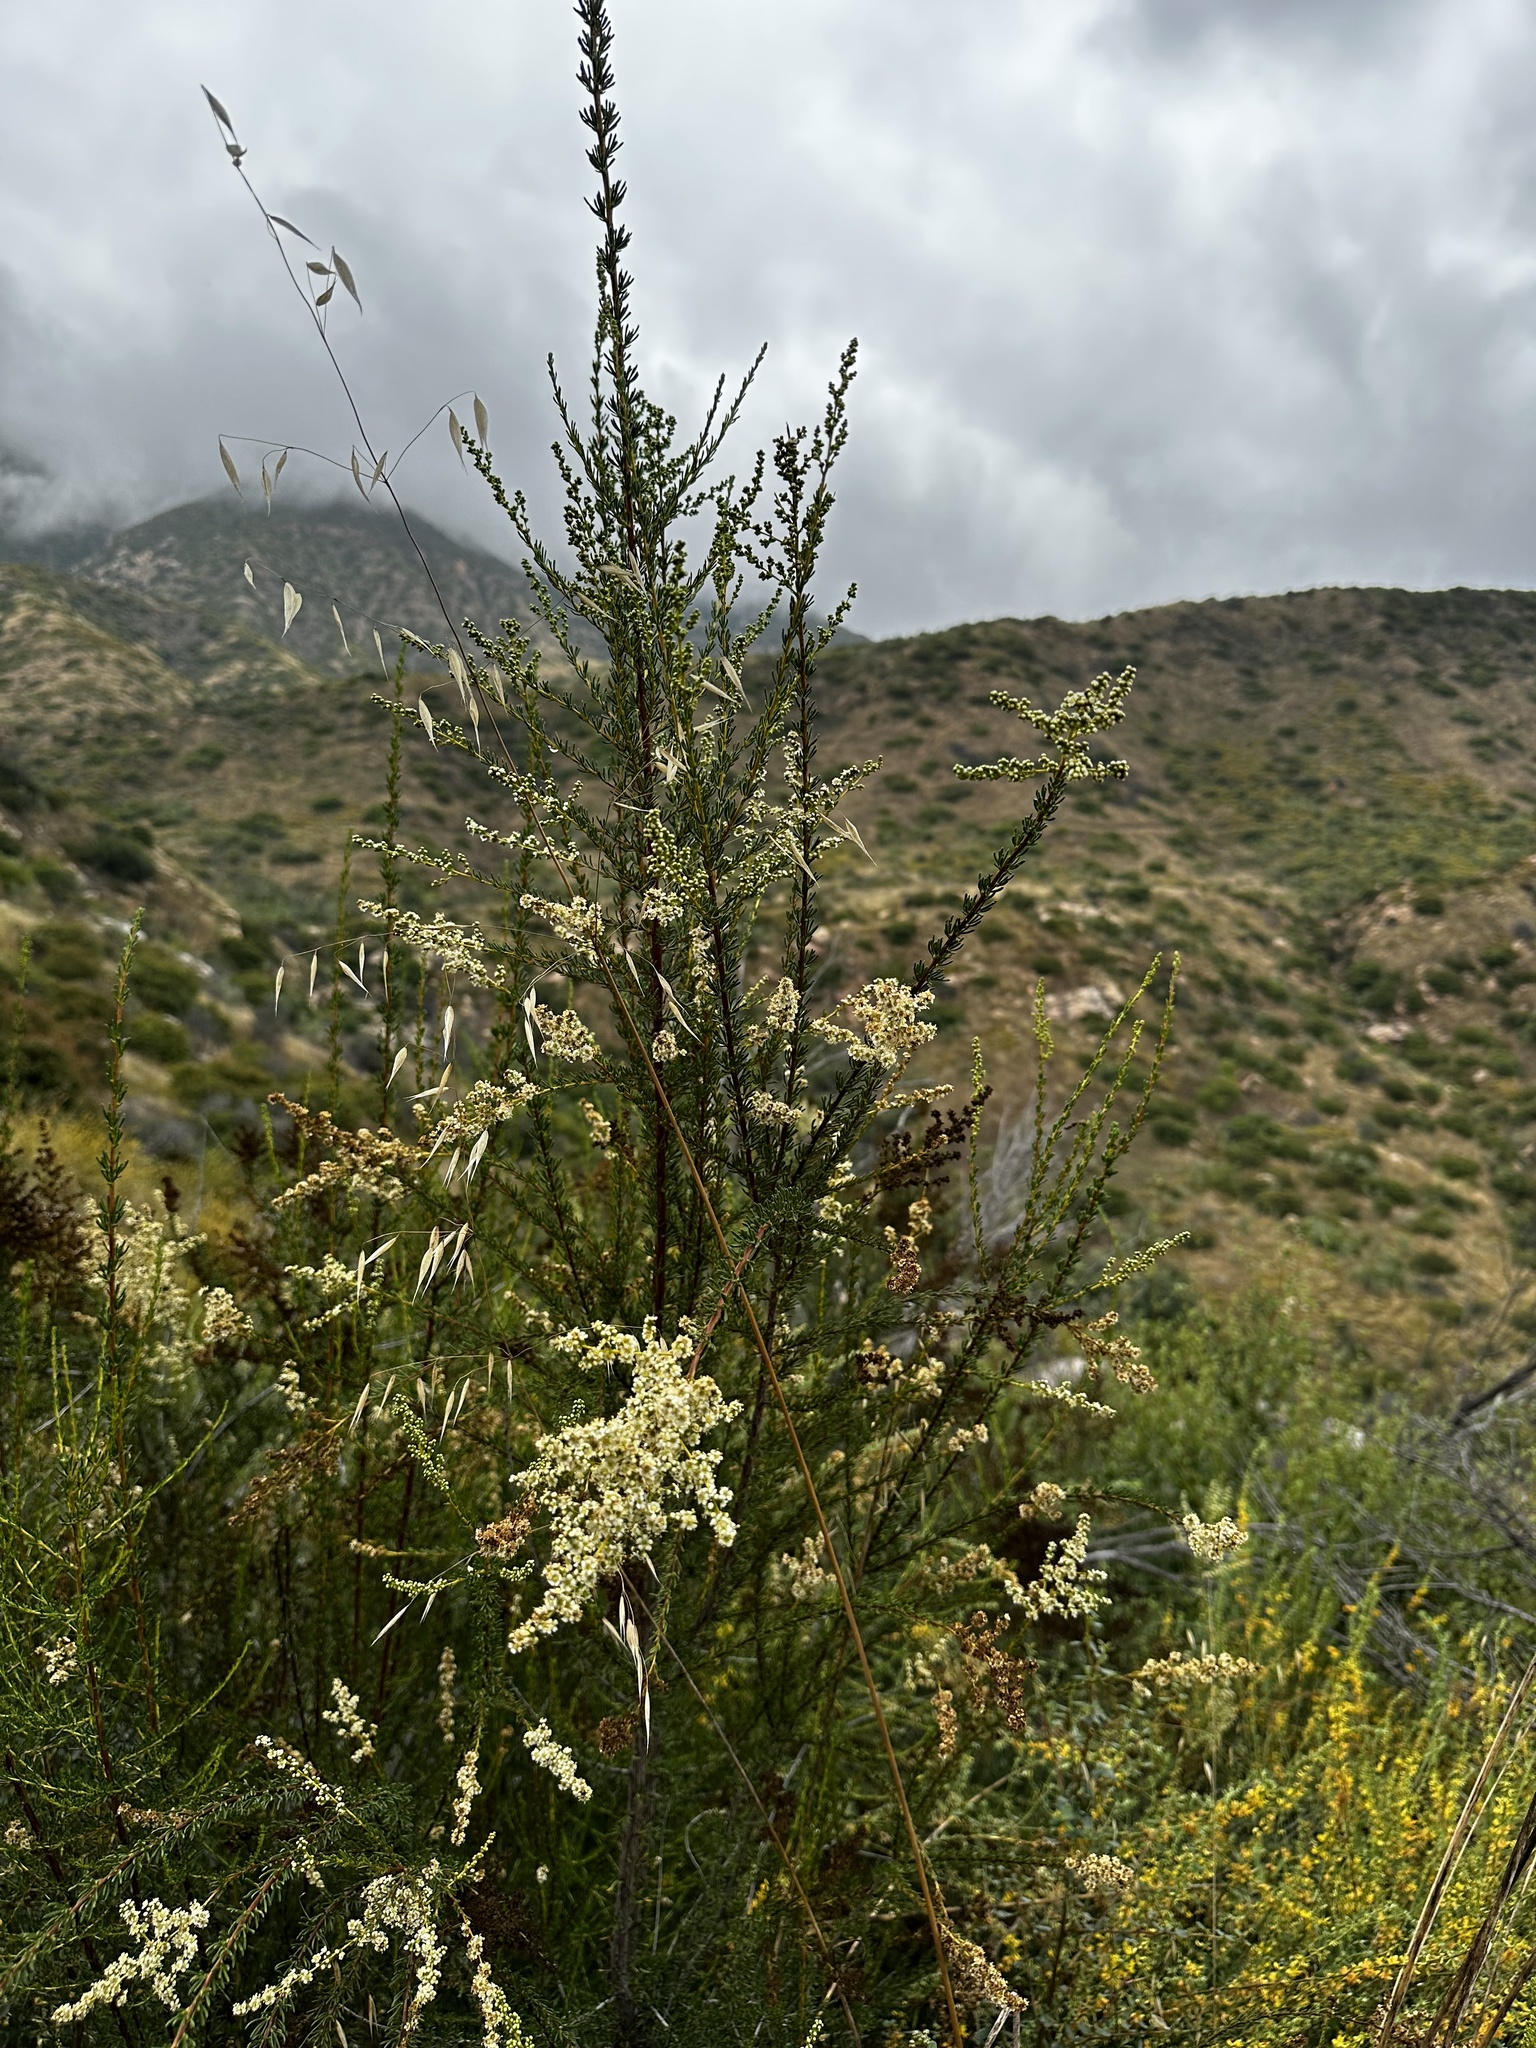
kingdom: Plantae
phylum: Tracheophyta
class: Magnoliopsida
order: Rosales
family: Rosaceae
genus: Adenostoma
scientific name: Adenostoma fasciculatum
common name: Chamise
